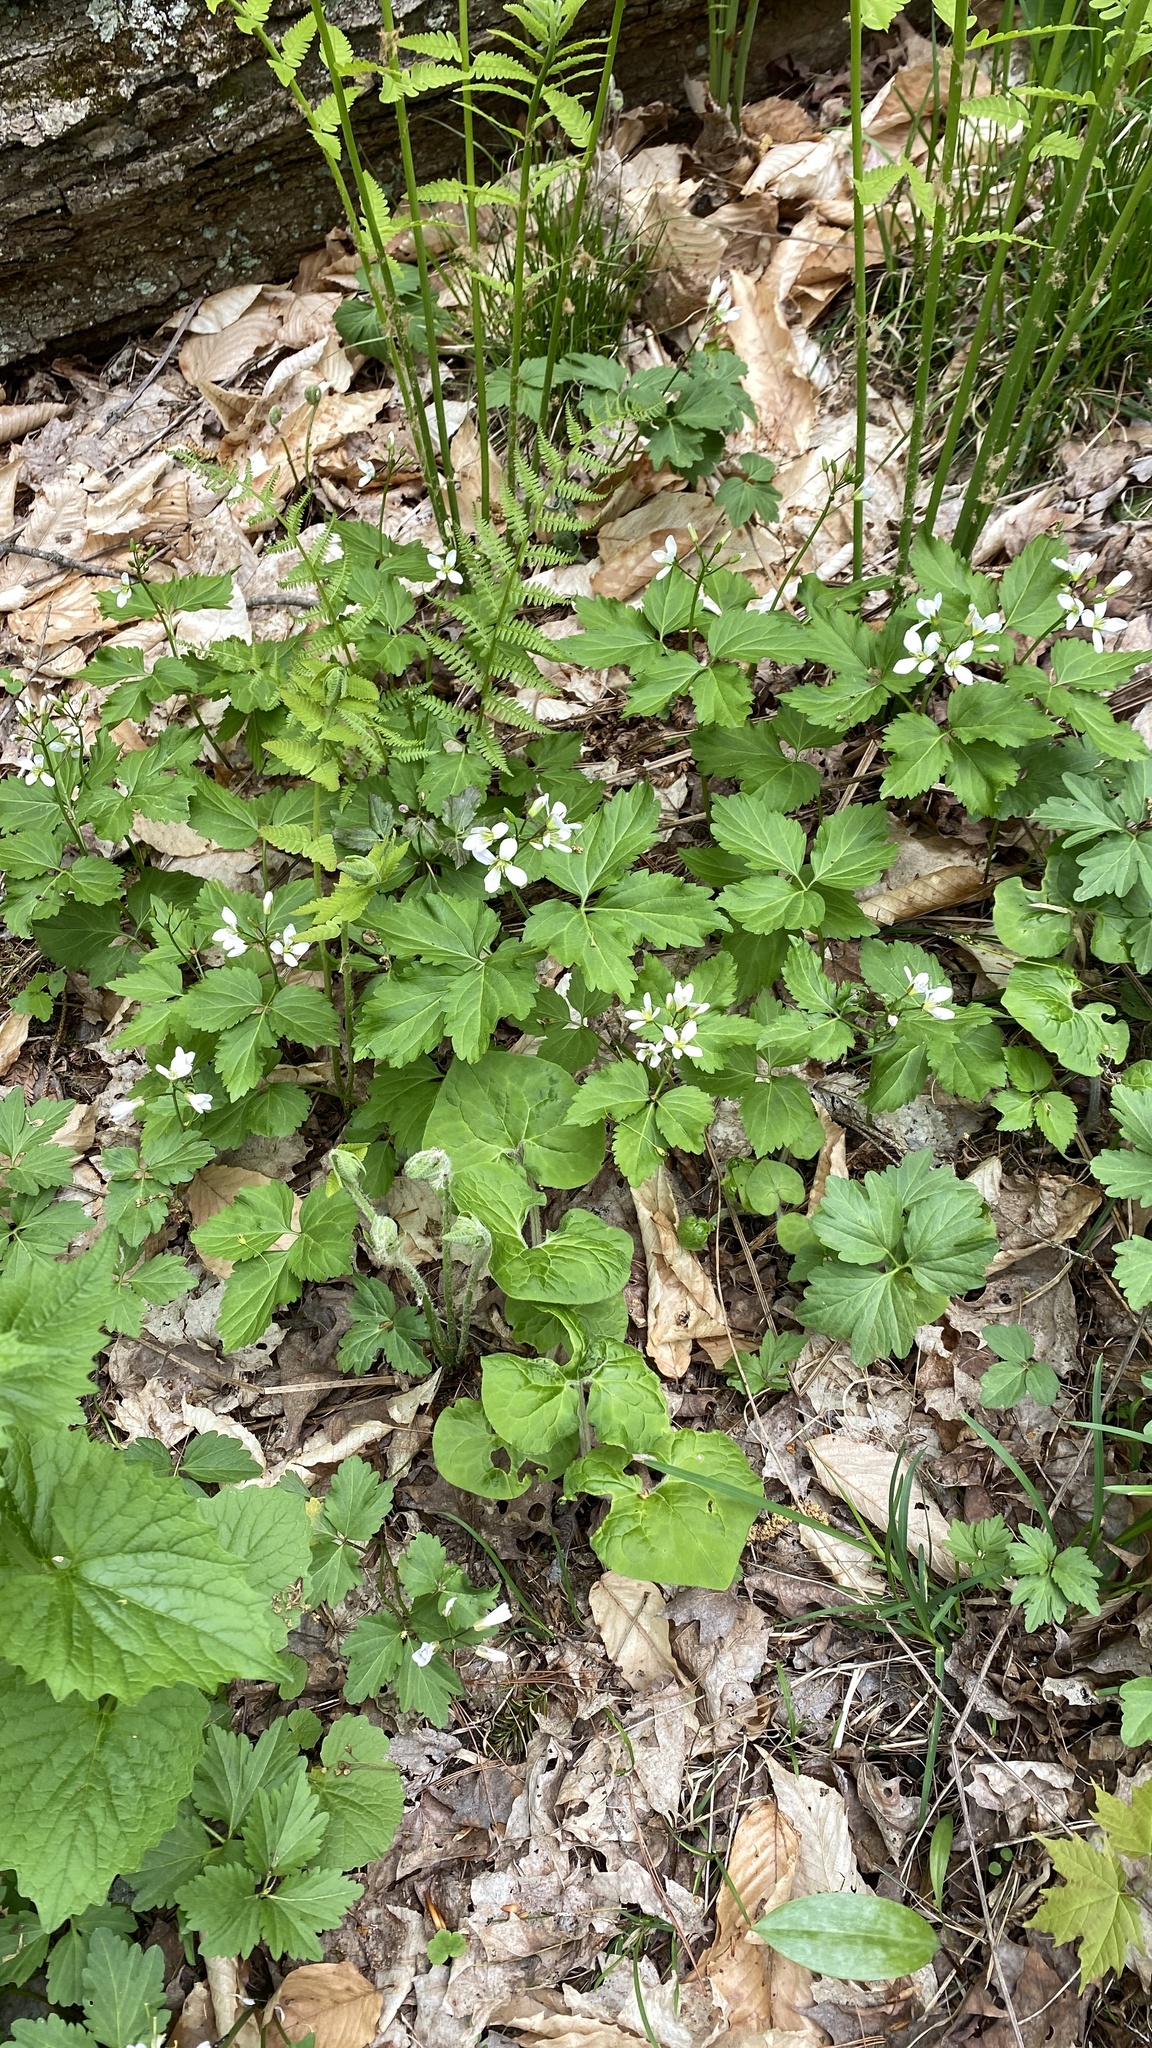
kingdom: Plantae
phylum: Tracheophyta
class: Magnoliopsida
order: Brassicales
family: Brassicaceae
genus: Cardamine
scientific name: Cardamine diphylla
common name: Broad-leaved toothwort
